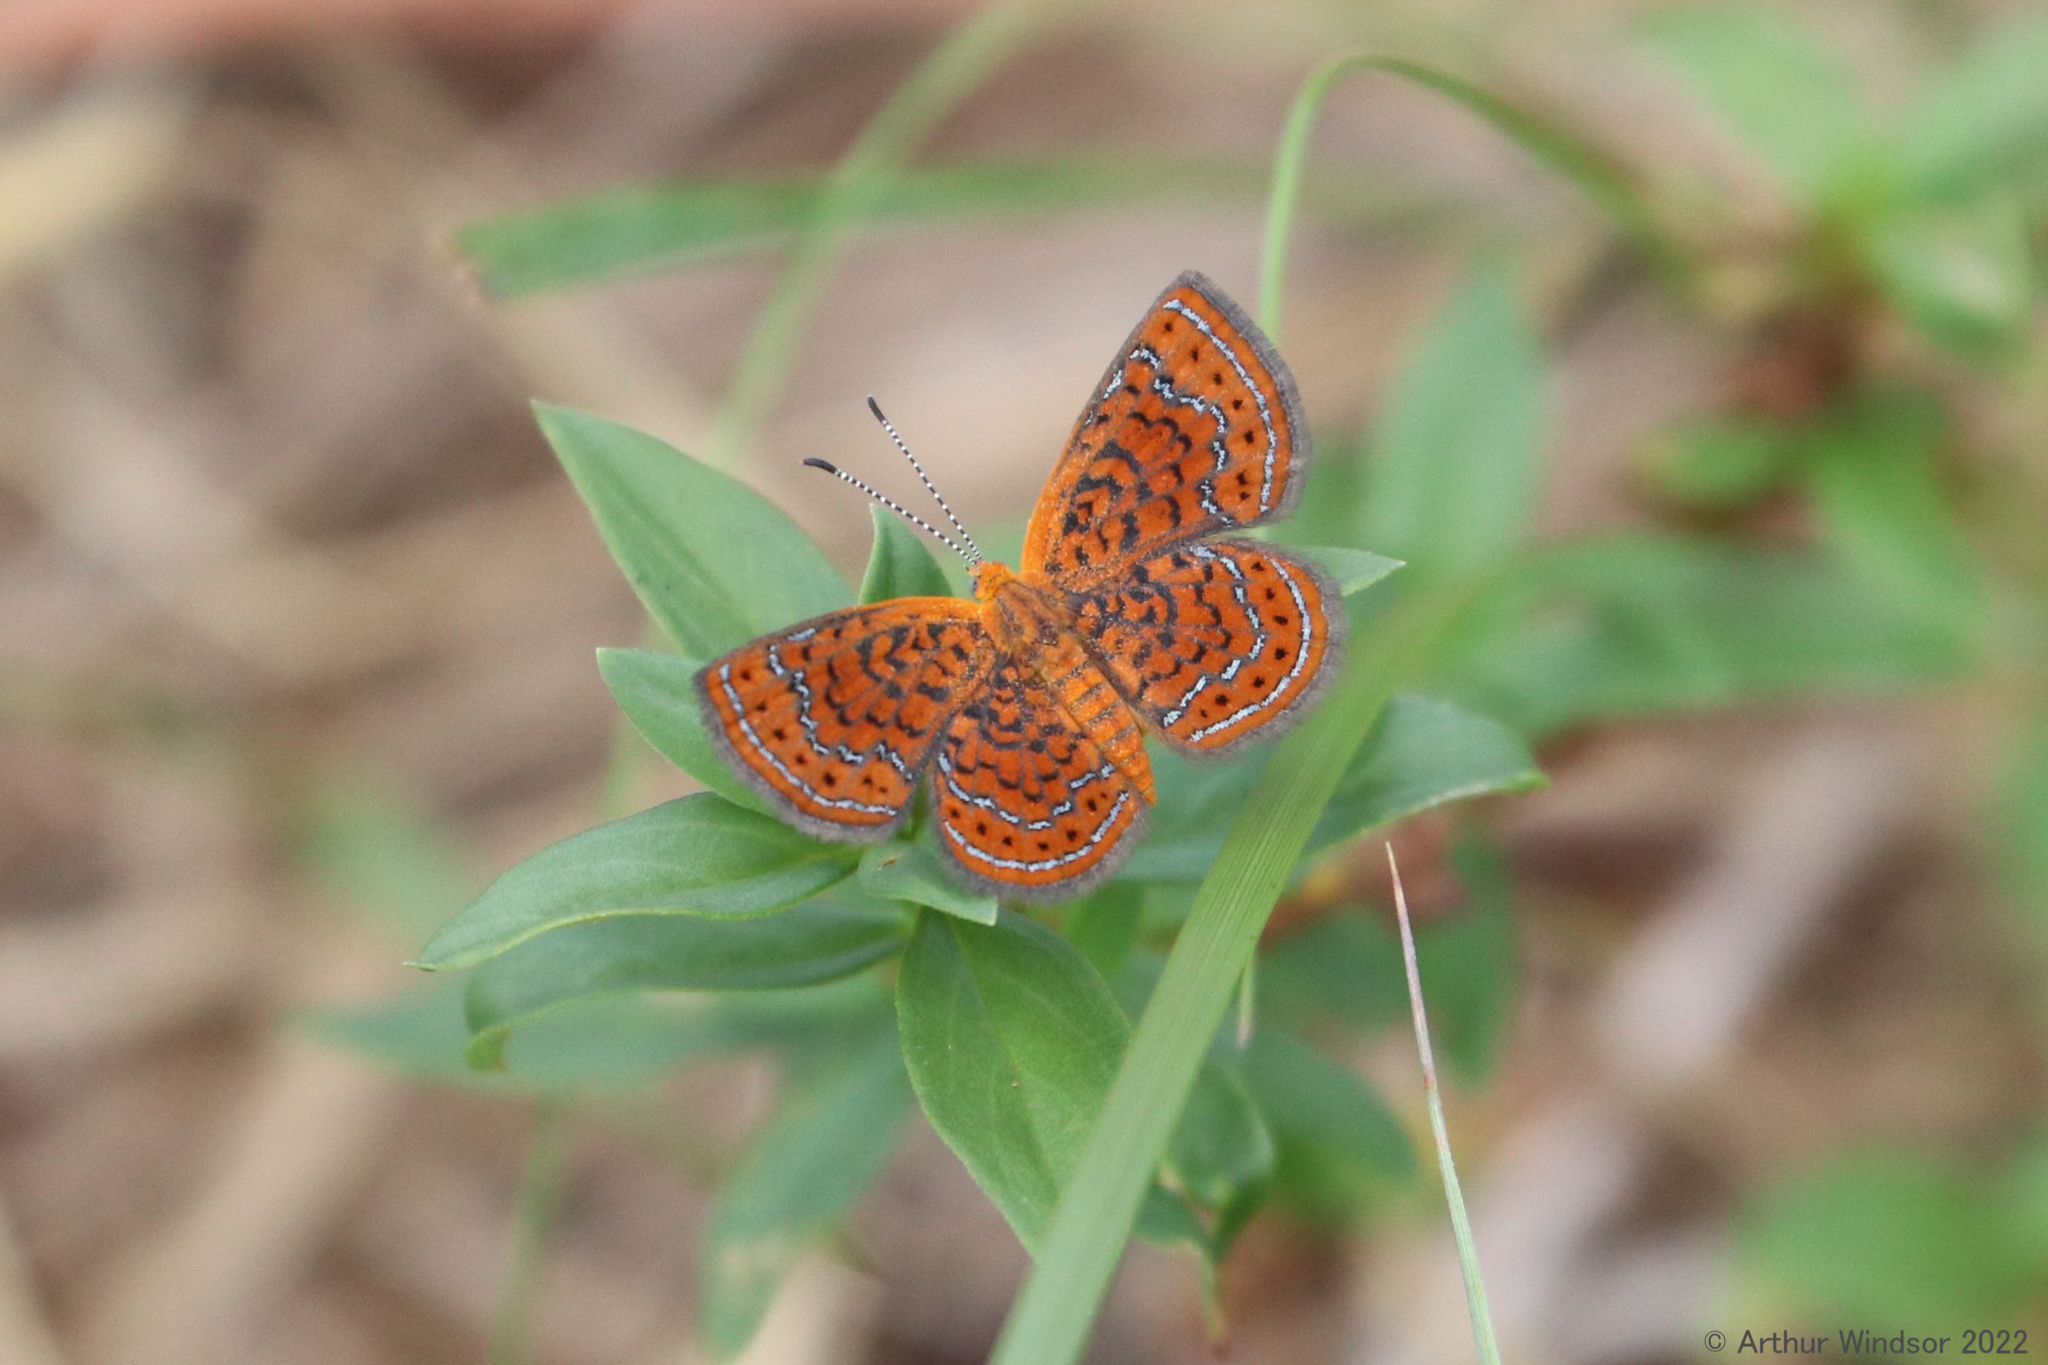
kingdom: Animalia
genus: Calephelis
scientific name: Calephelis virginiensis
